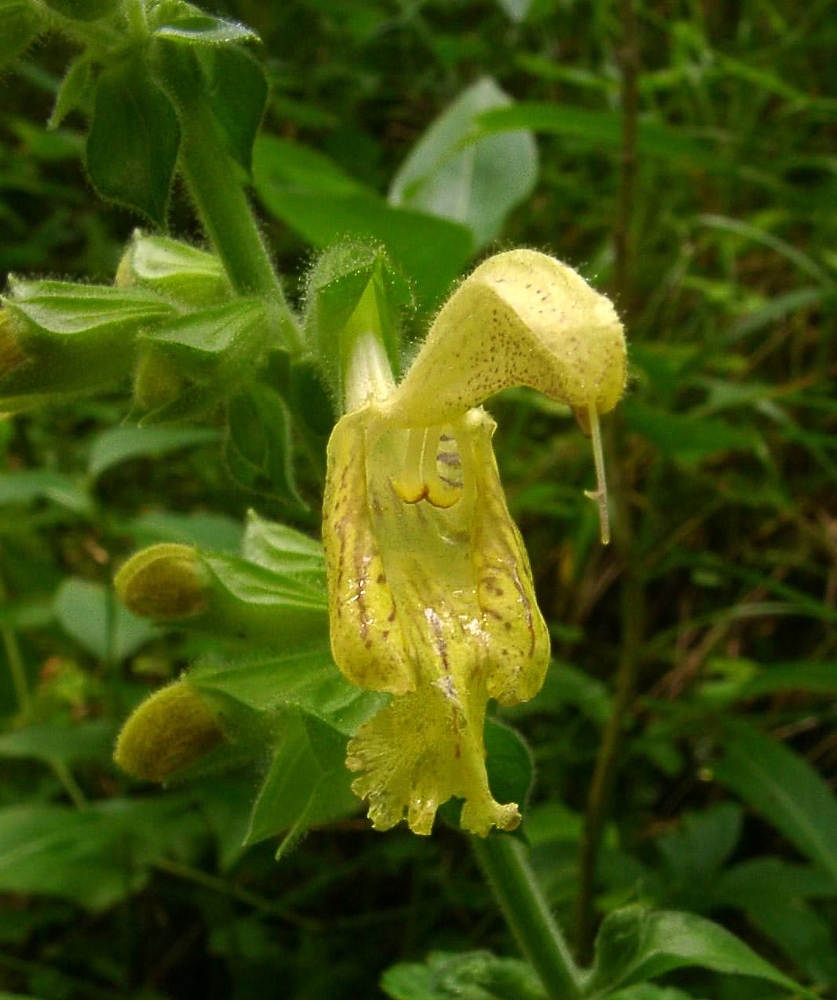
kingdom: Plantae
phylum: Tracheophyta
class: Magnoliopsida
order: Lamiales
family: Lamiaceae
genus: Salvia
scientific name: Salvia glutinosa
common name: Sticky clary
